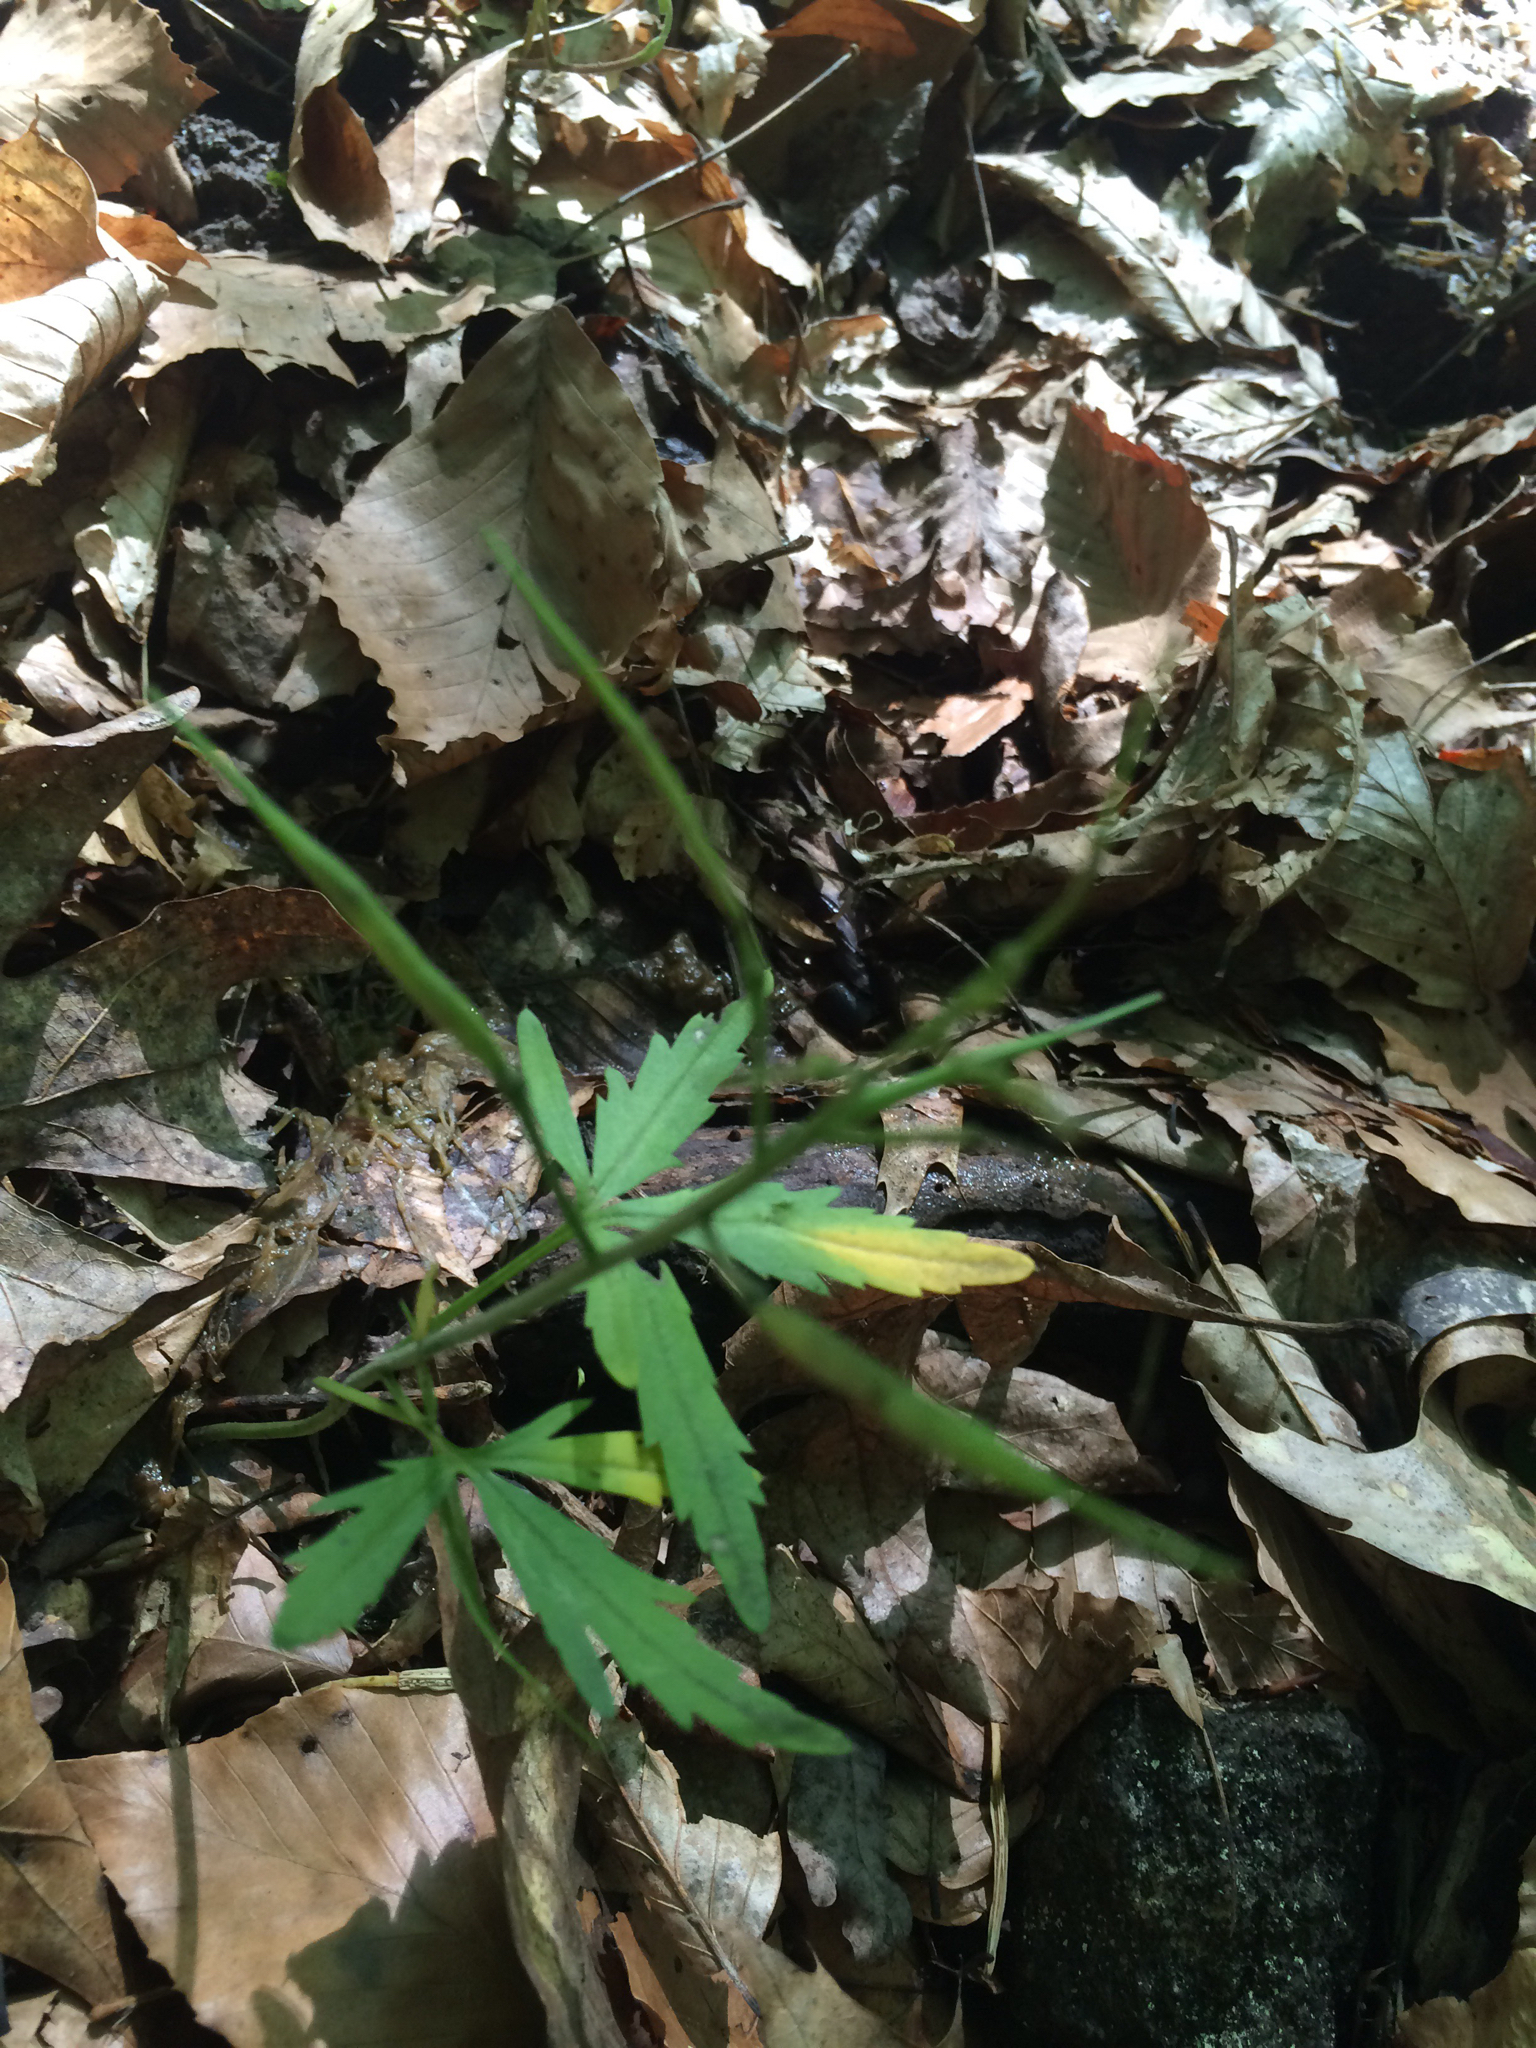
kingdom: Plantae
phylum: Tracheophyta
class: Magnoliopsida
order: Brassicales
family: Brassicaceae
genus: Cardamine
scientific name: Cardamine concatenata
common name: Cut-leaf toothcup
